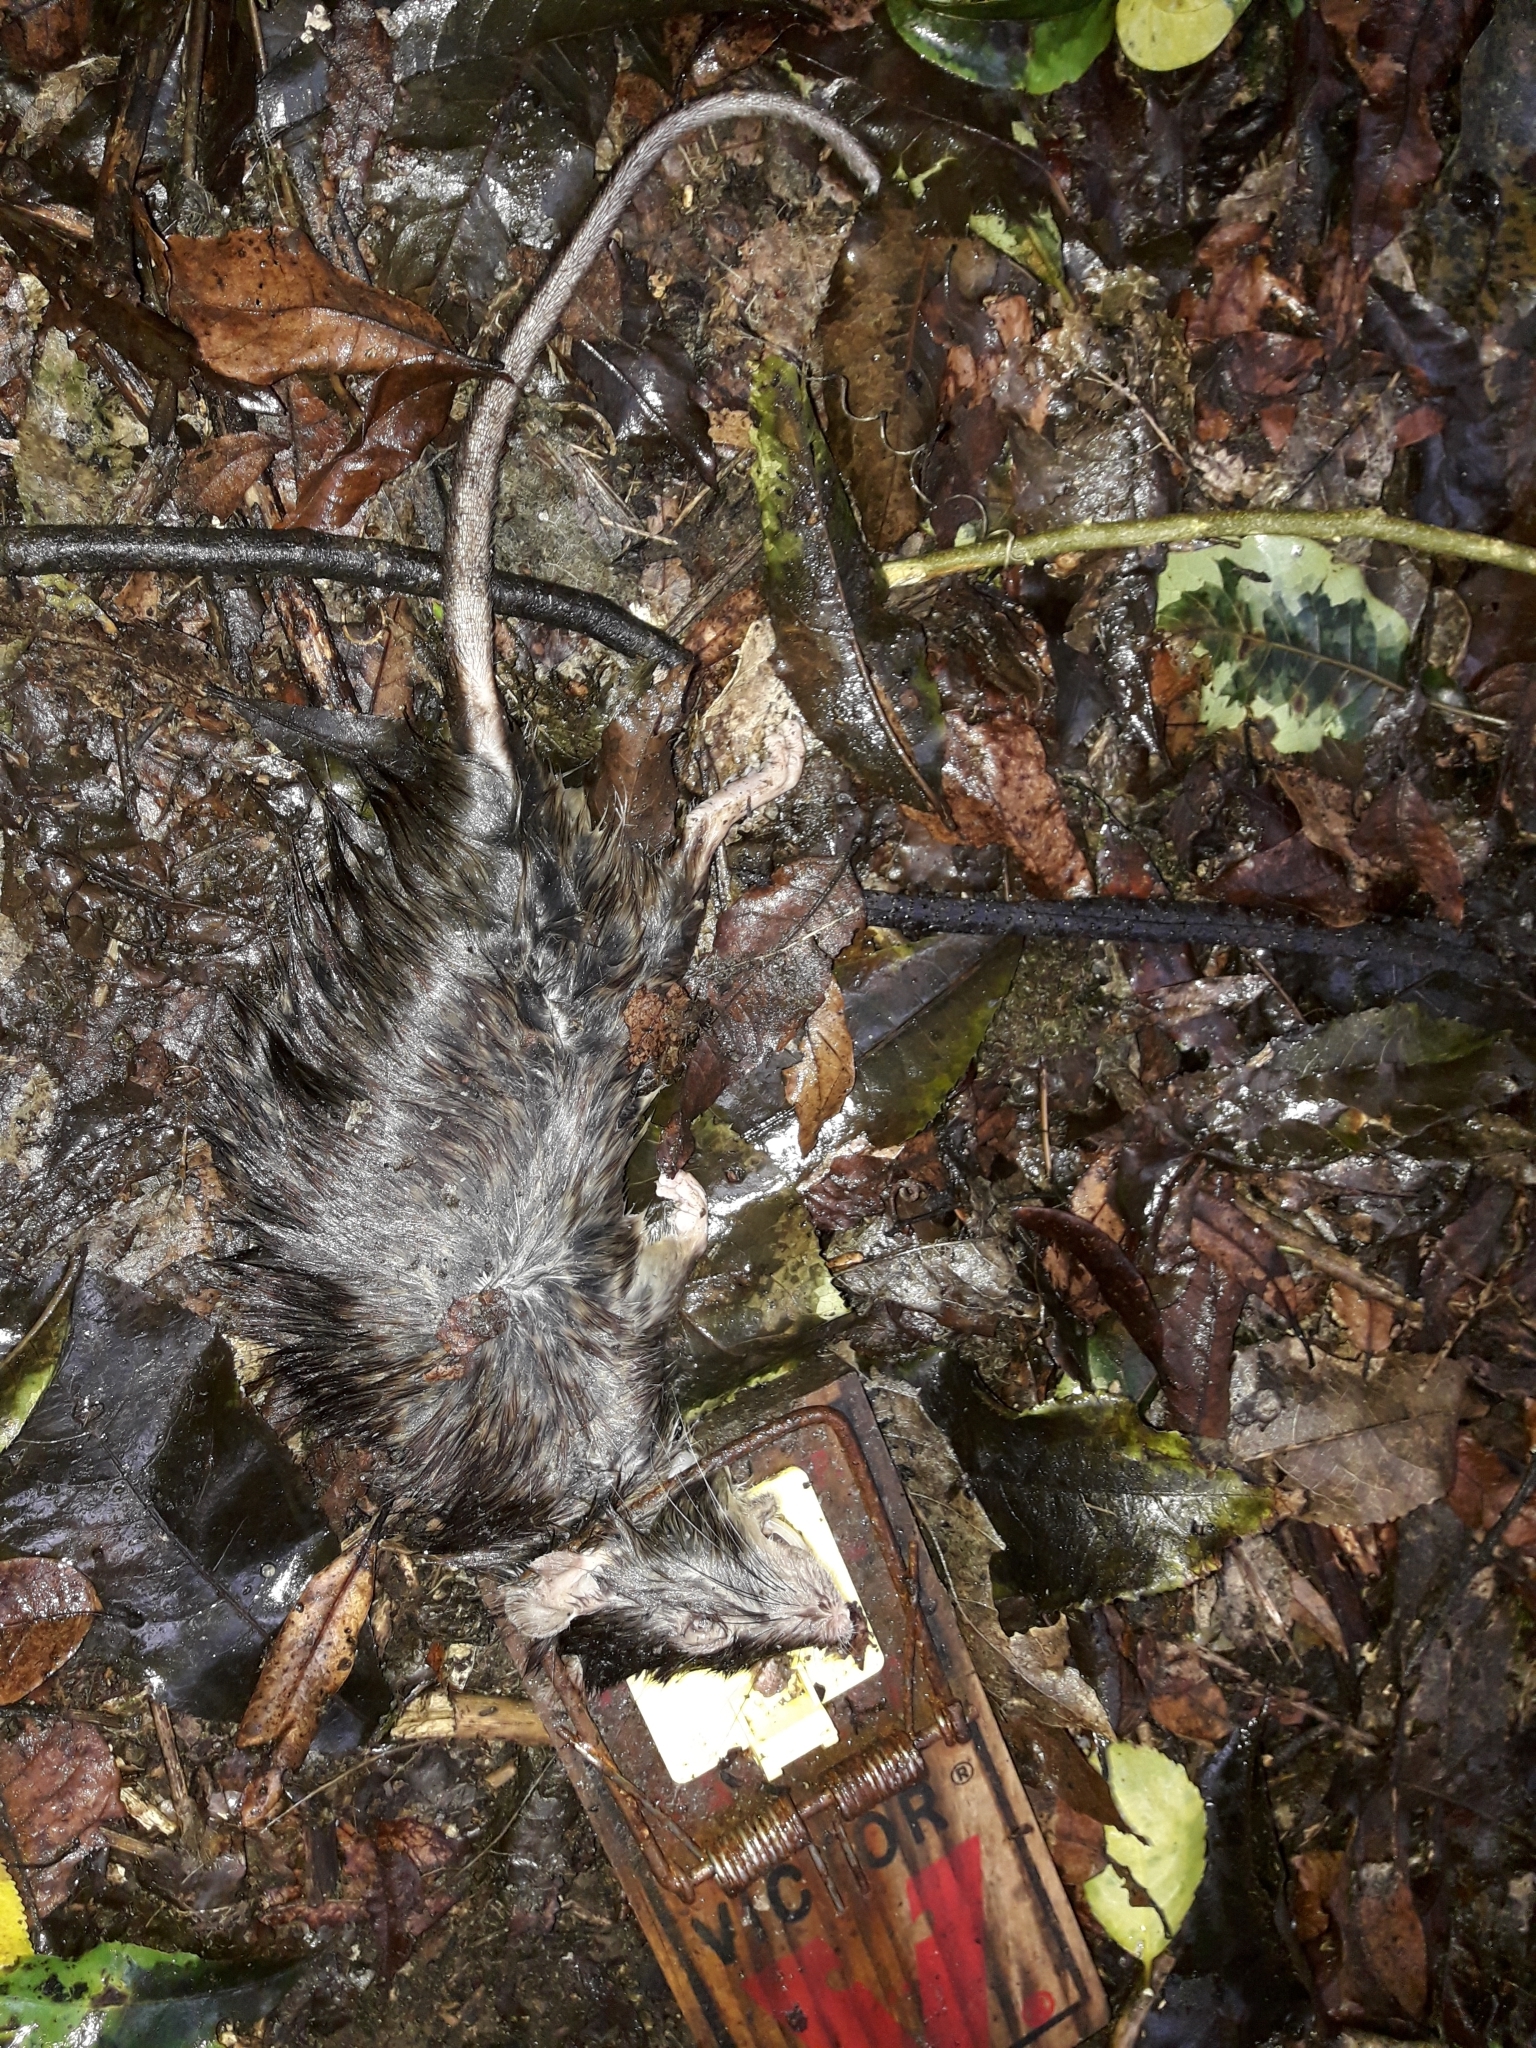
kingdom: Animalia
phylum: Chordata
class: Mammalia
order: Rodentia
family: Muridae
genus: Rattus
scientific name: Rattus rattus
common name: Black rat
